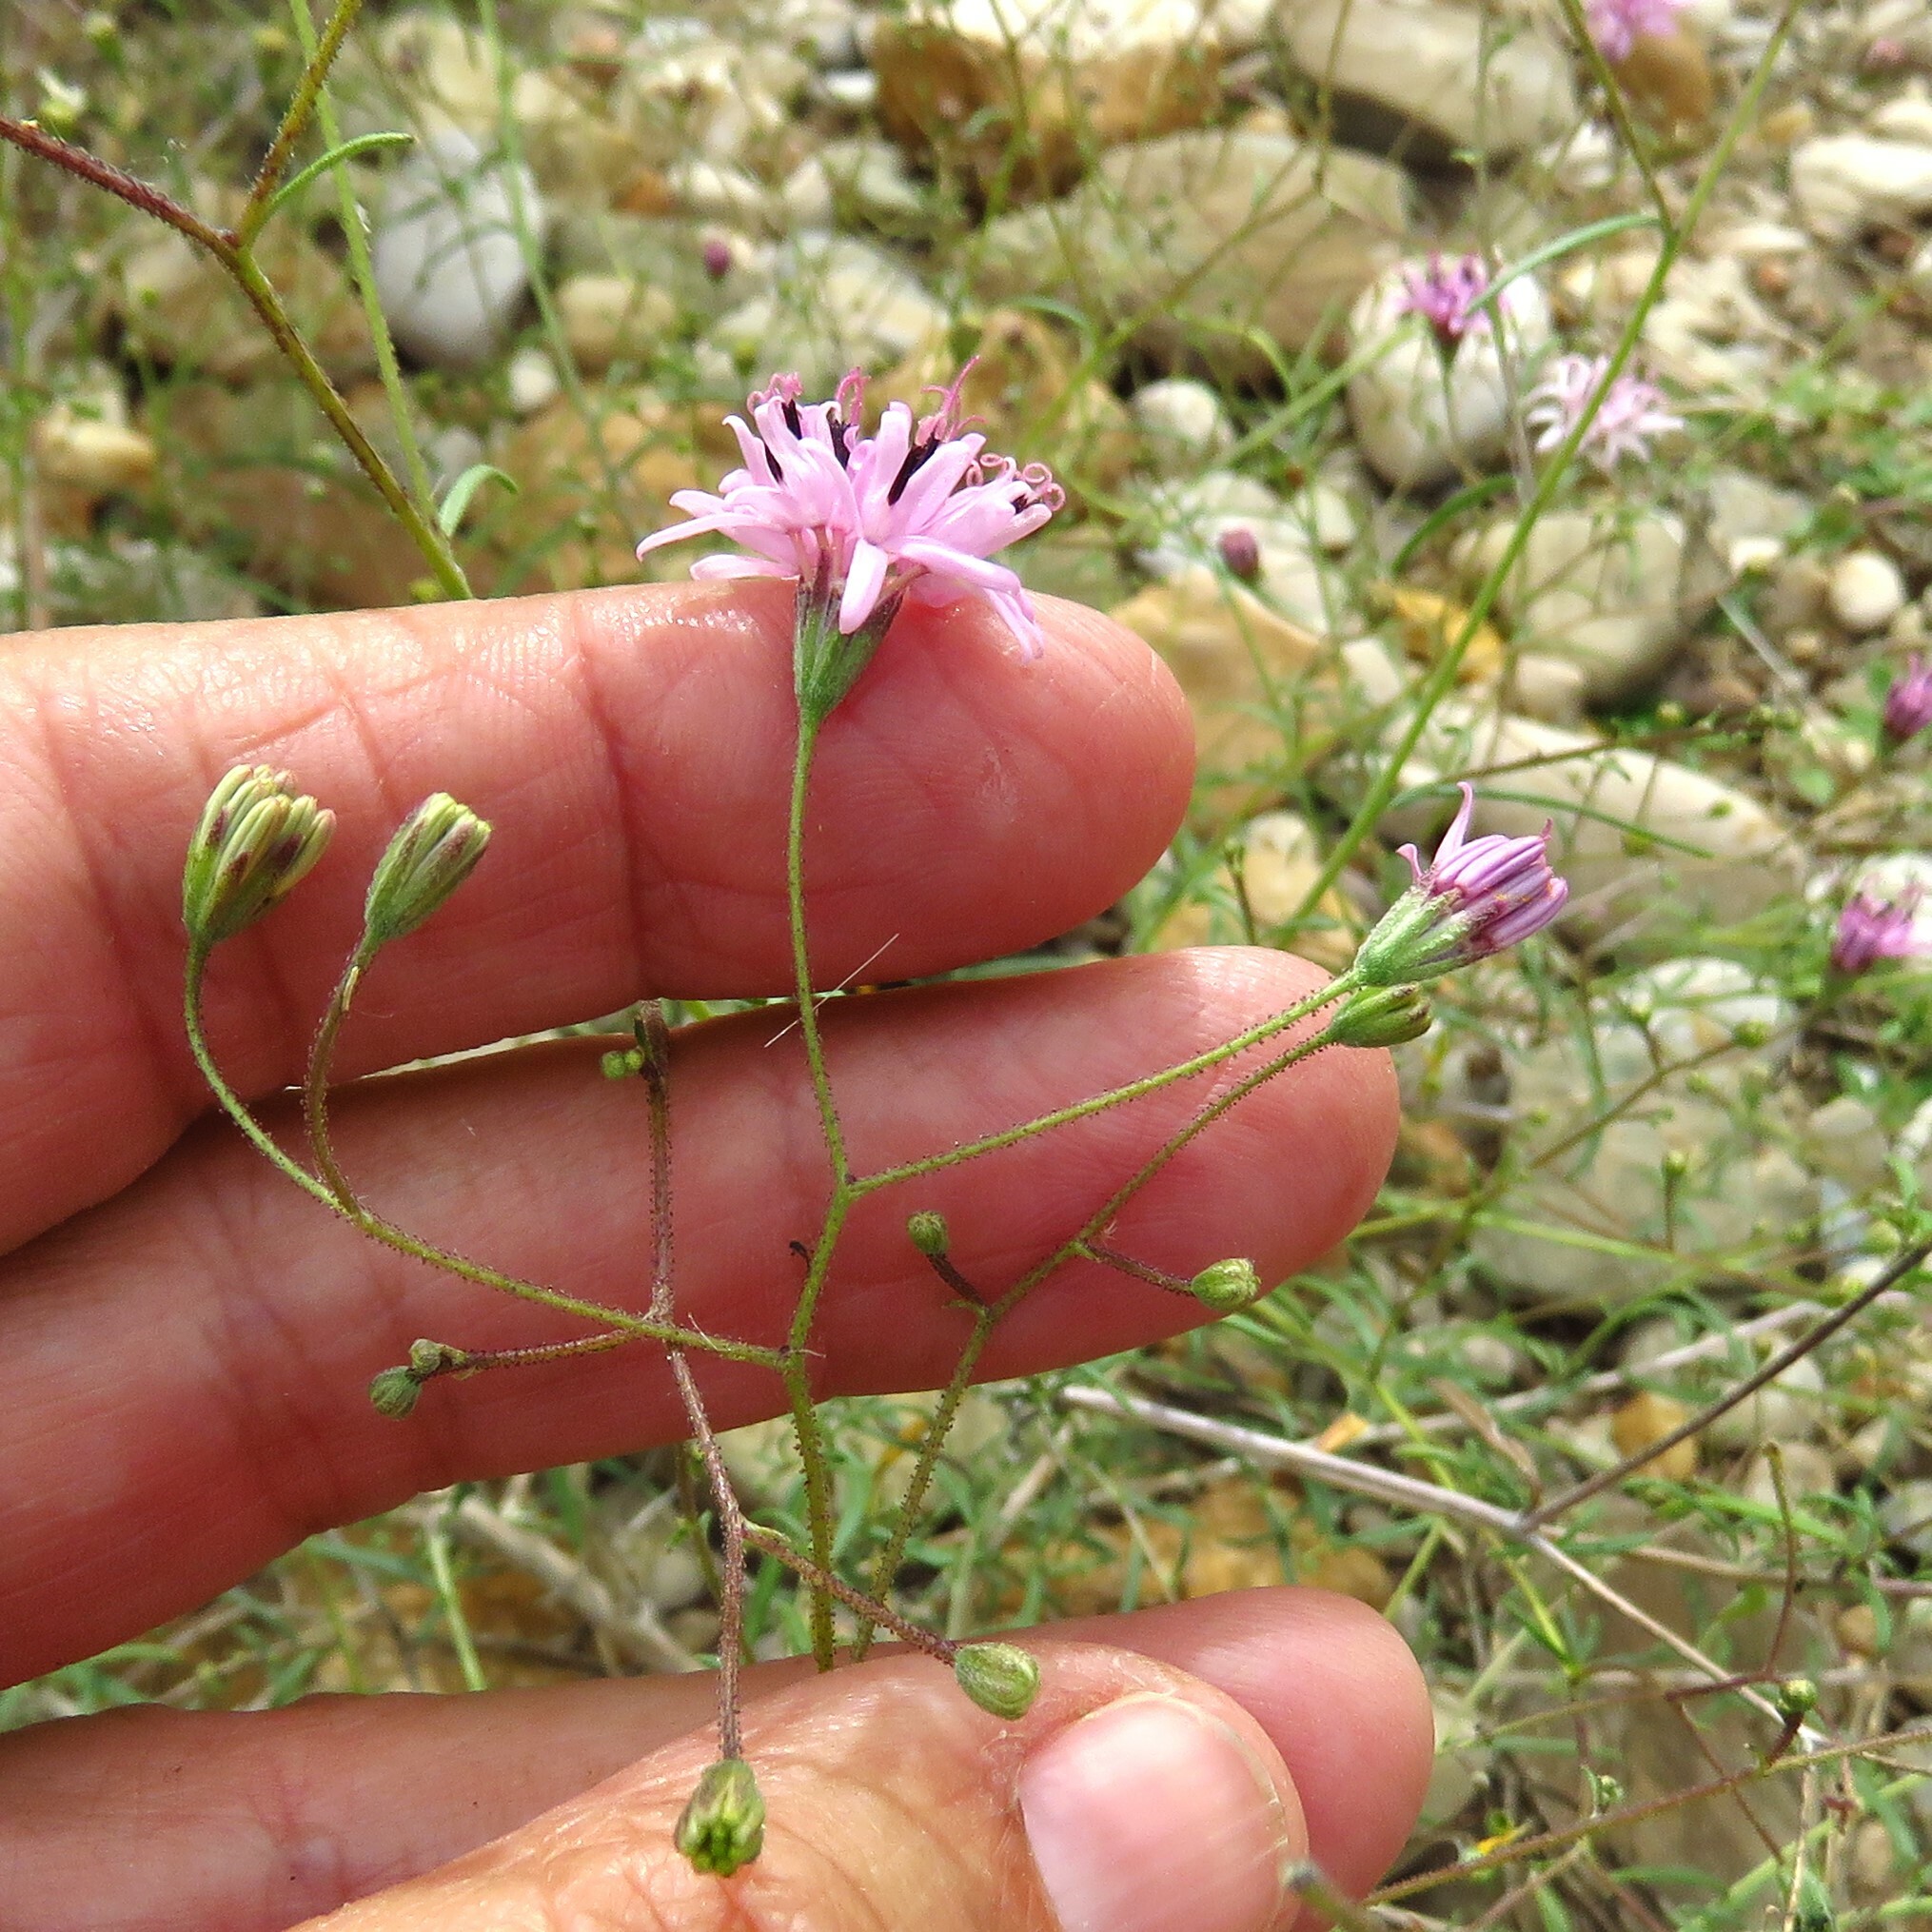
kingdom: Plantae
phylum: Tracheophyta
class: Magnoliopsida
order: Asterales
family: Asteraceae
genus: Palafoxia
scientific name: Palafoxia callosa
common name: Small palafox
